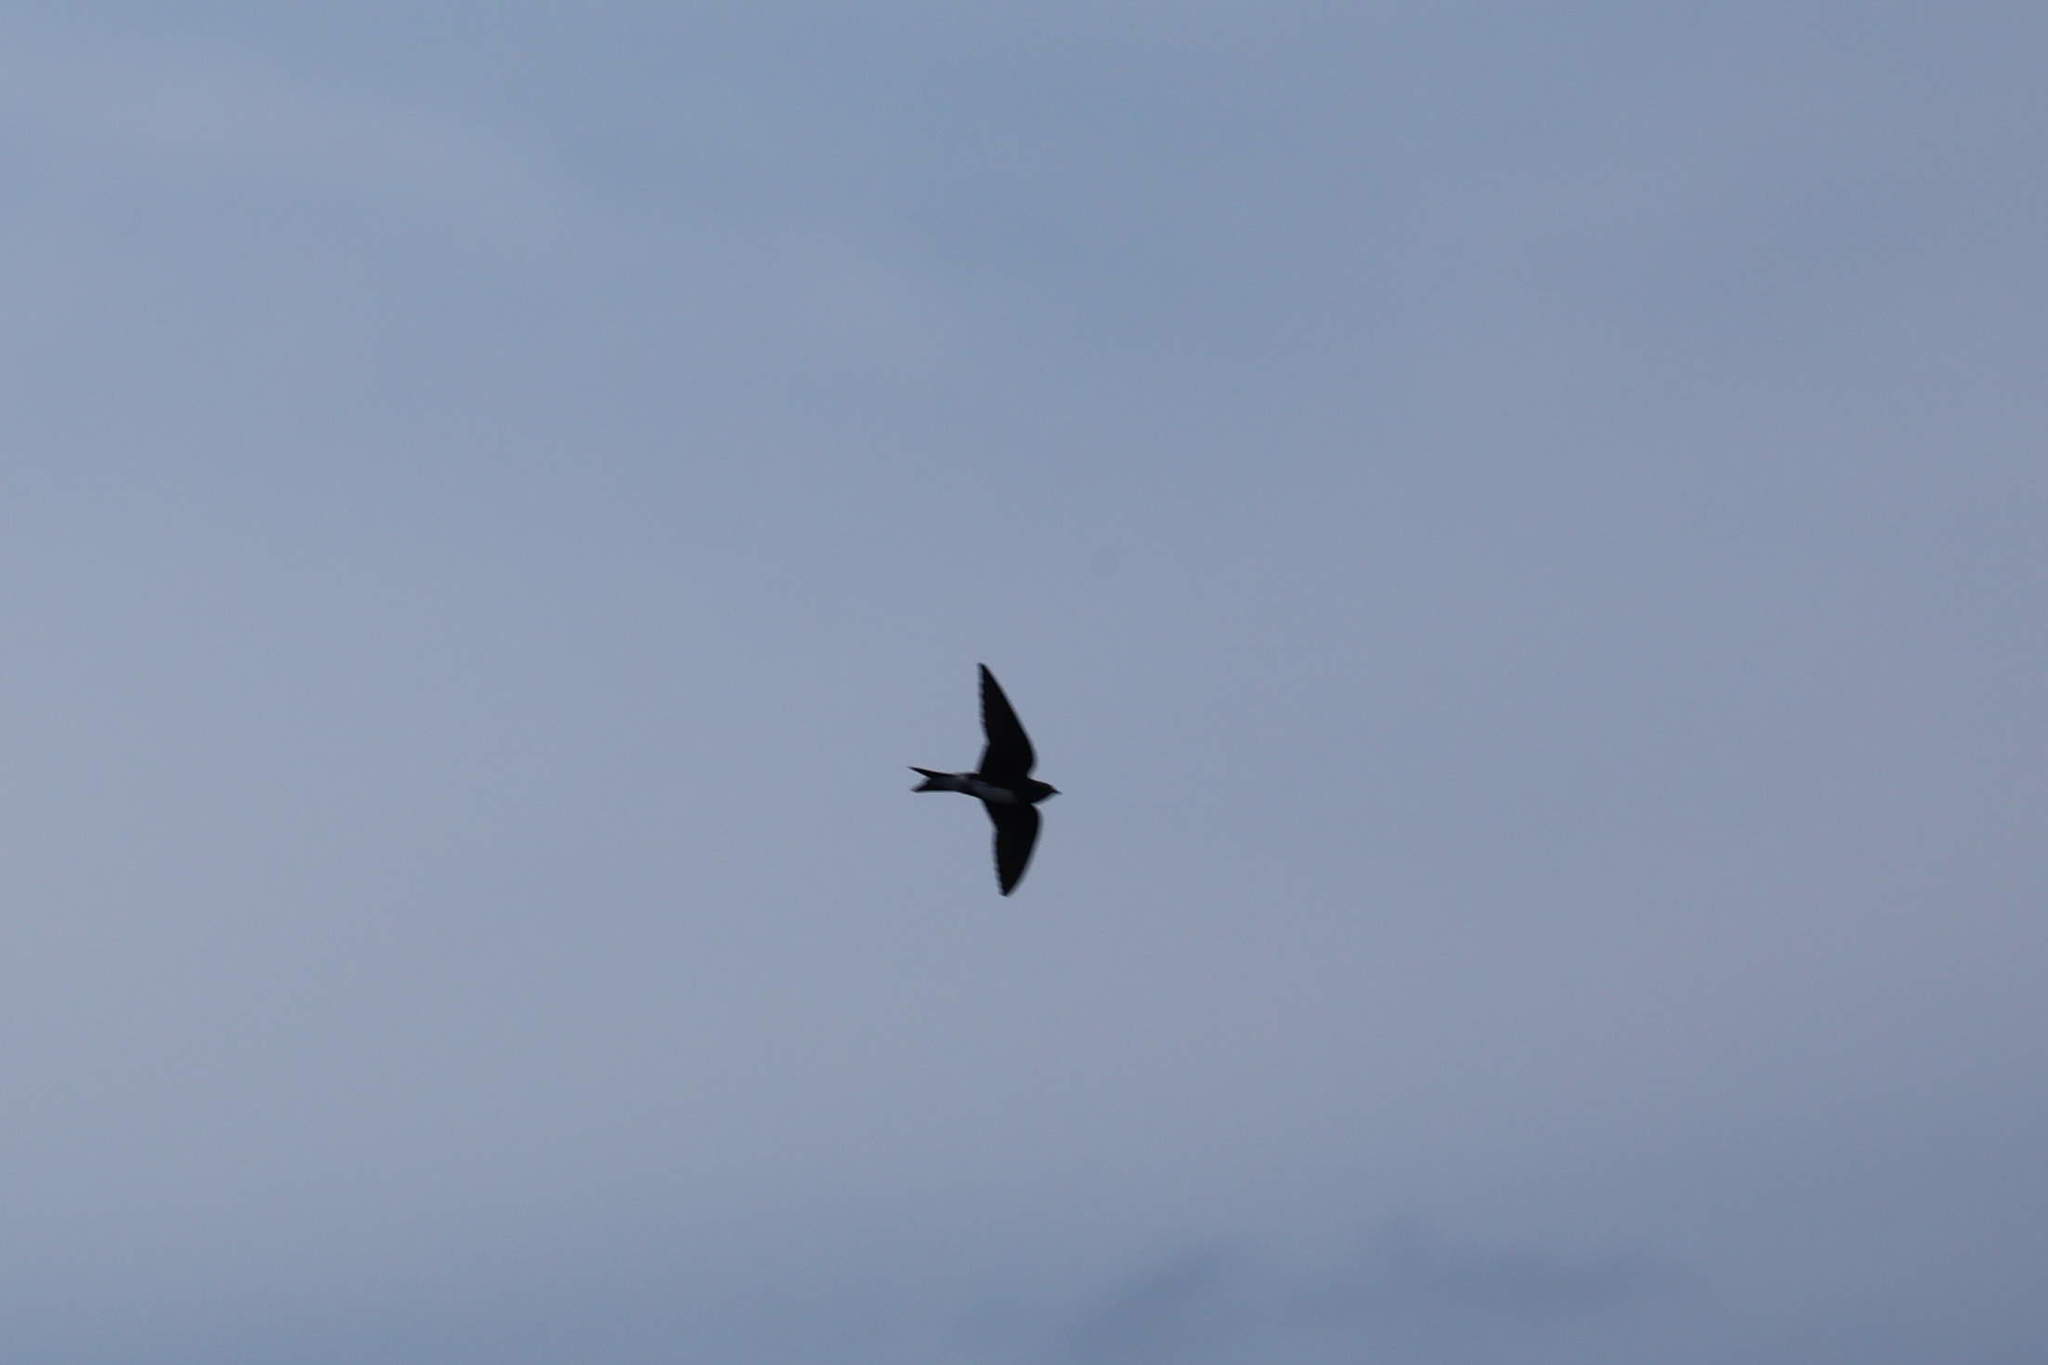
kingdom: Animalia
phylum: Chordata
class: Aves
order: Passeriformes
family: Hirundinidae
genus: Progne
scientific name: Progne dominicensis
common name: Caribbean martin
